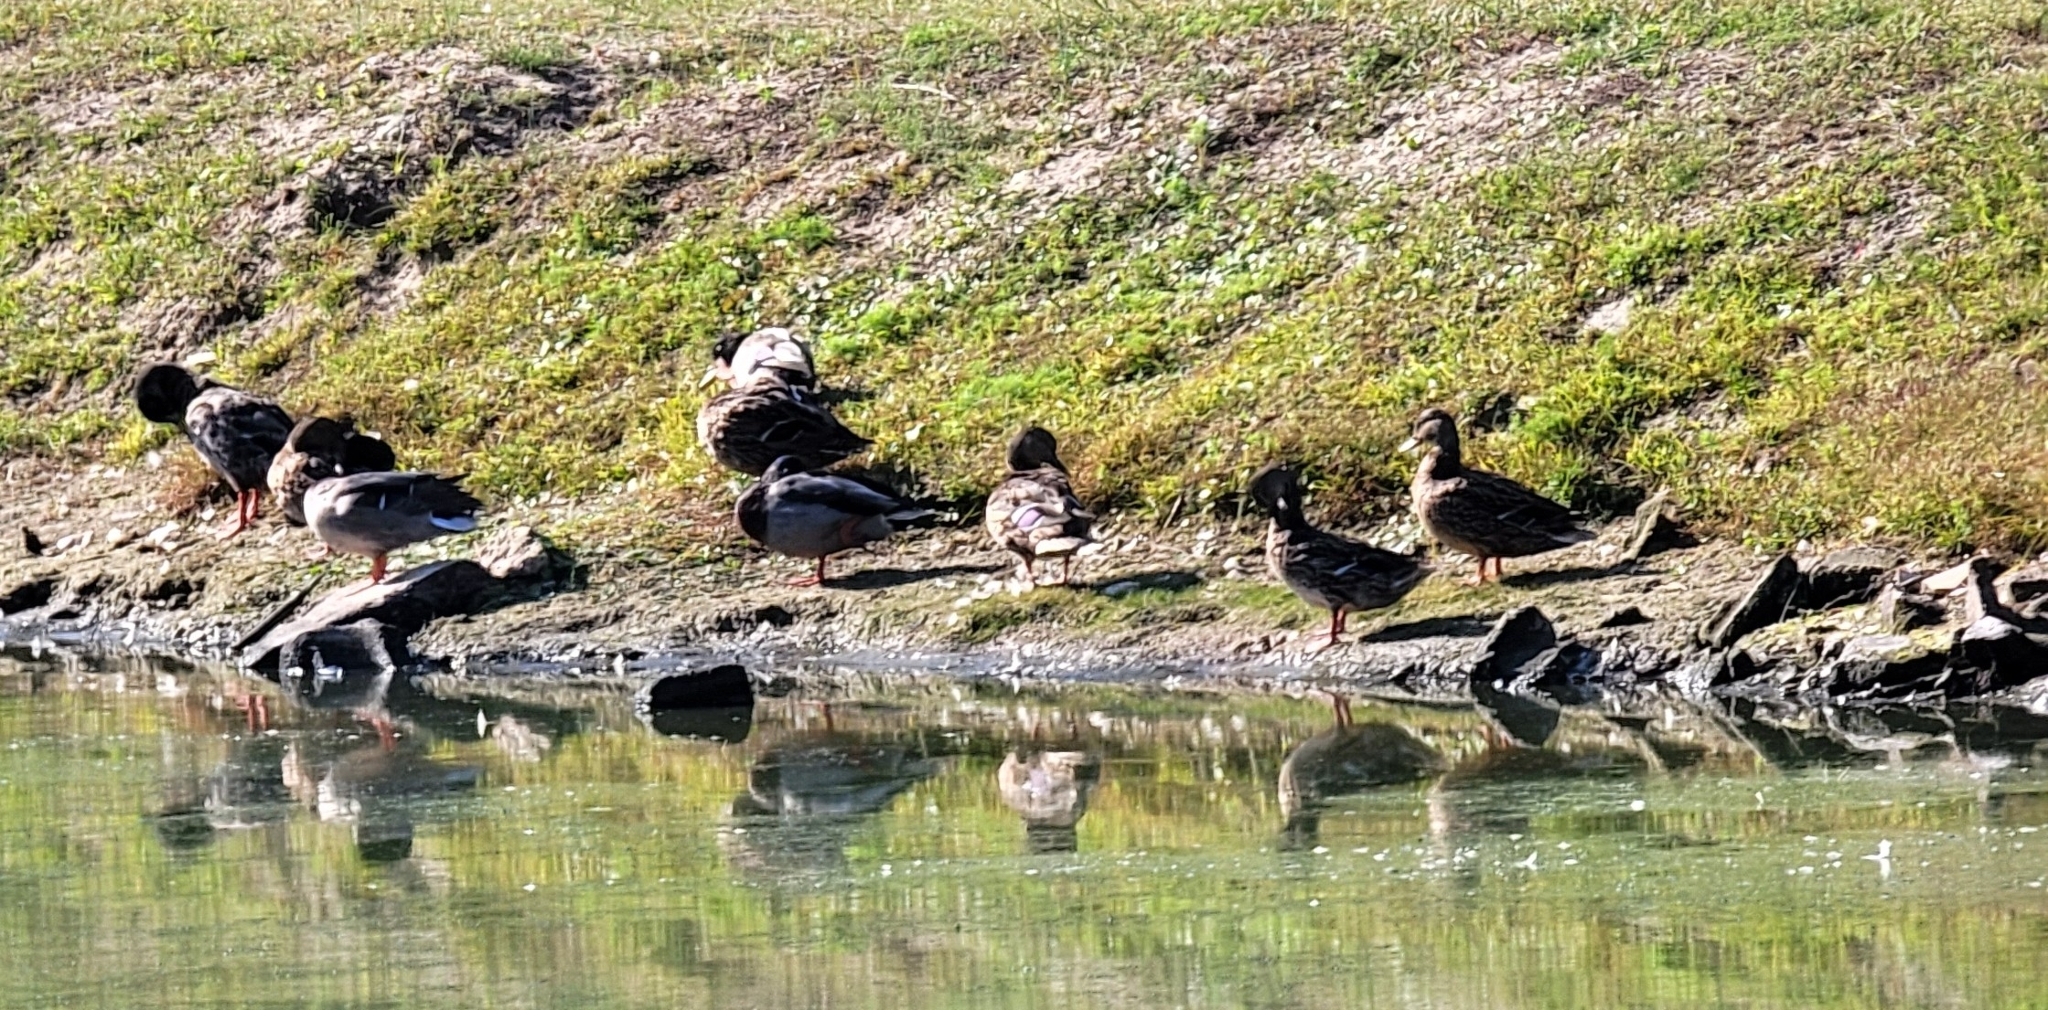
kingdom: Animalia
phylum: Chordata
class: Aves
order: Anseriformes
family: Anatidae
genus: Anas
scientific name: Anas platyrhynchos
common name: Mallard
